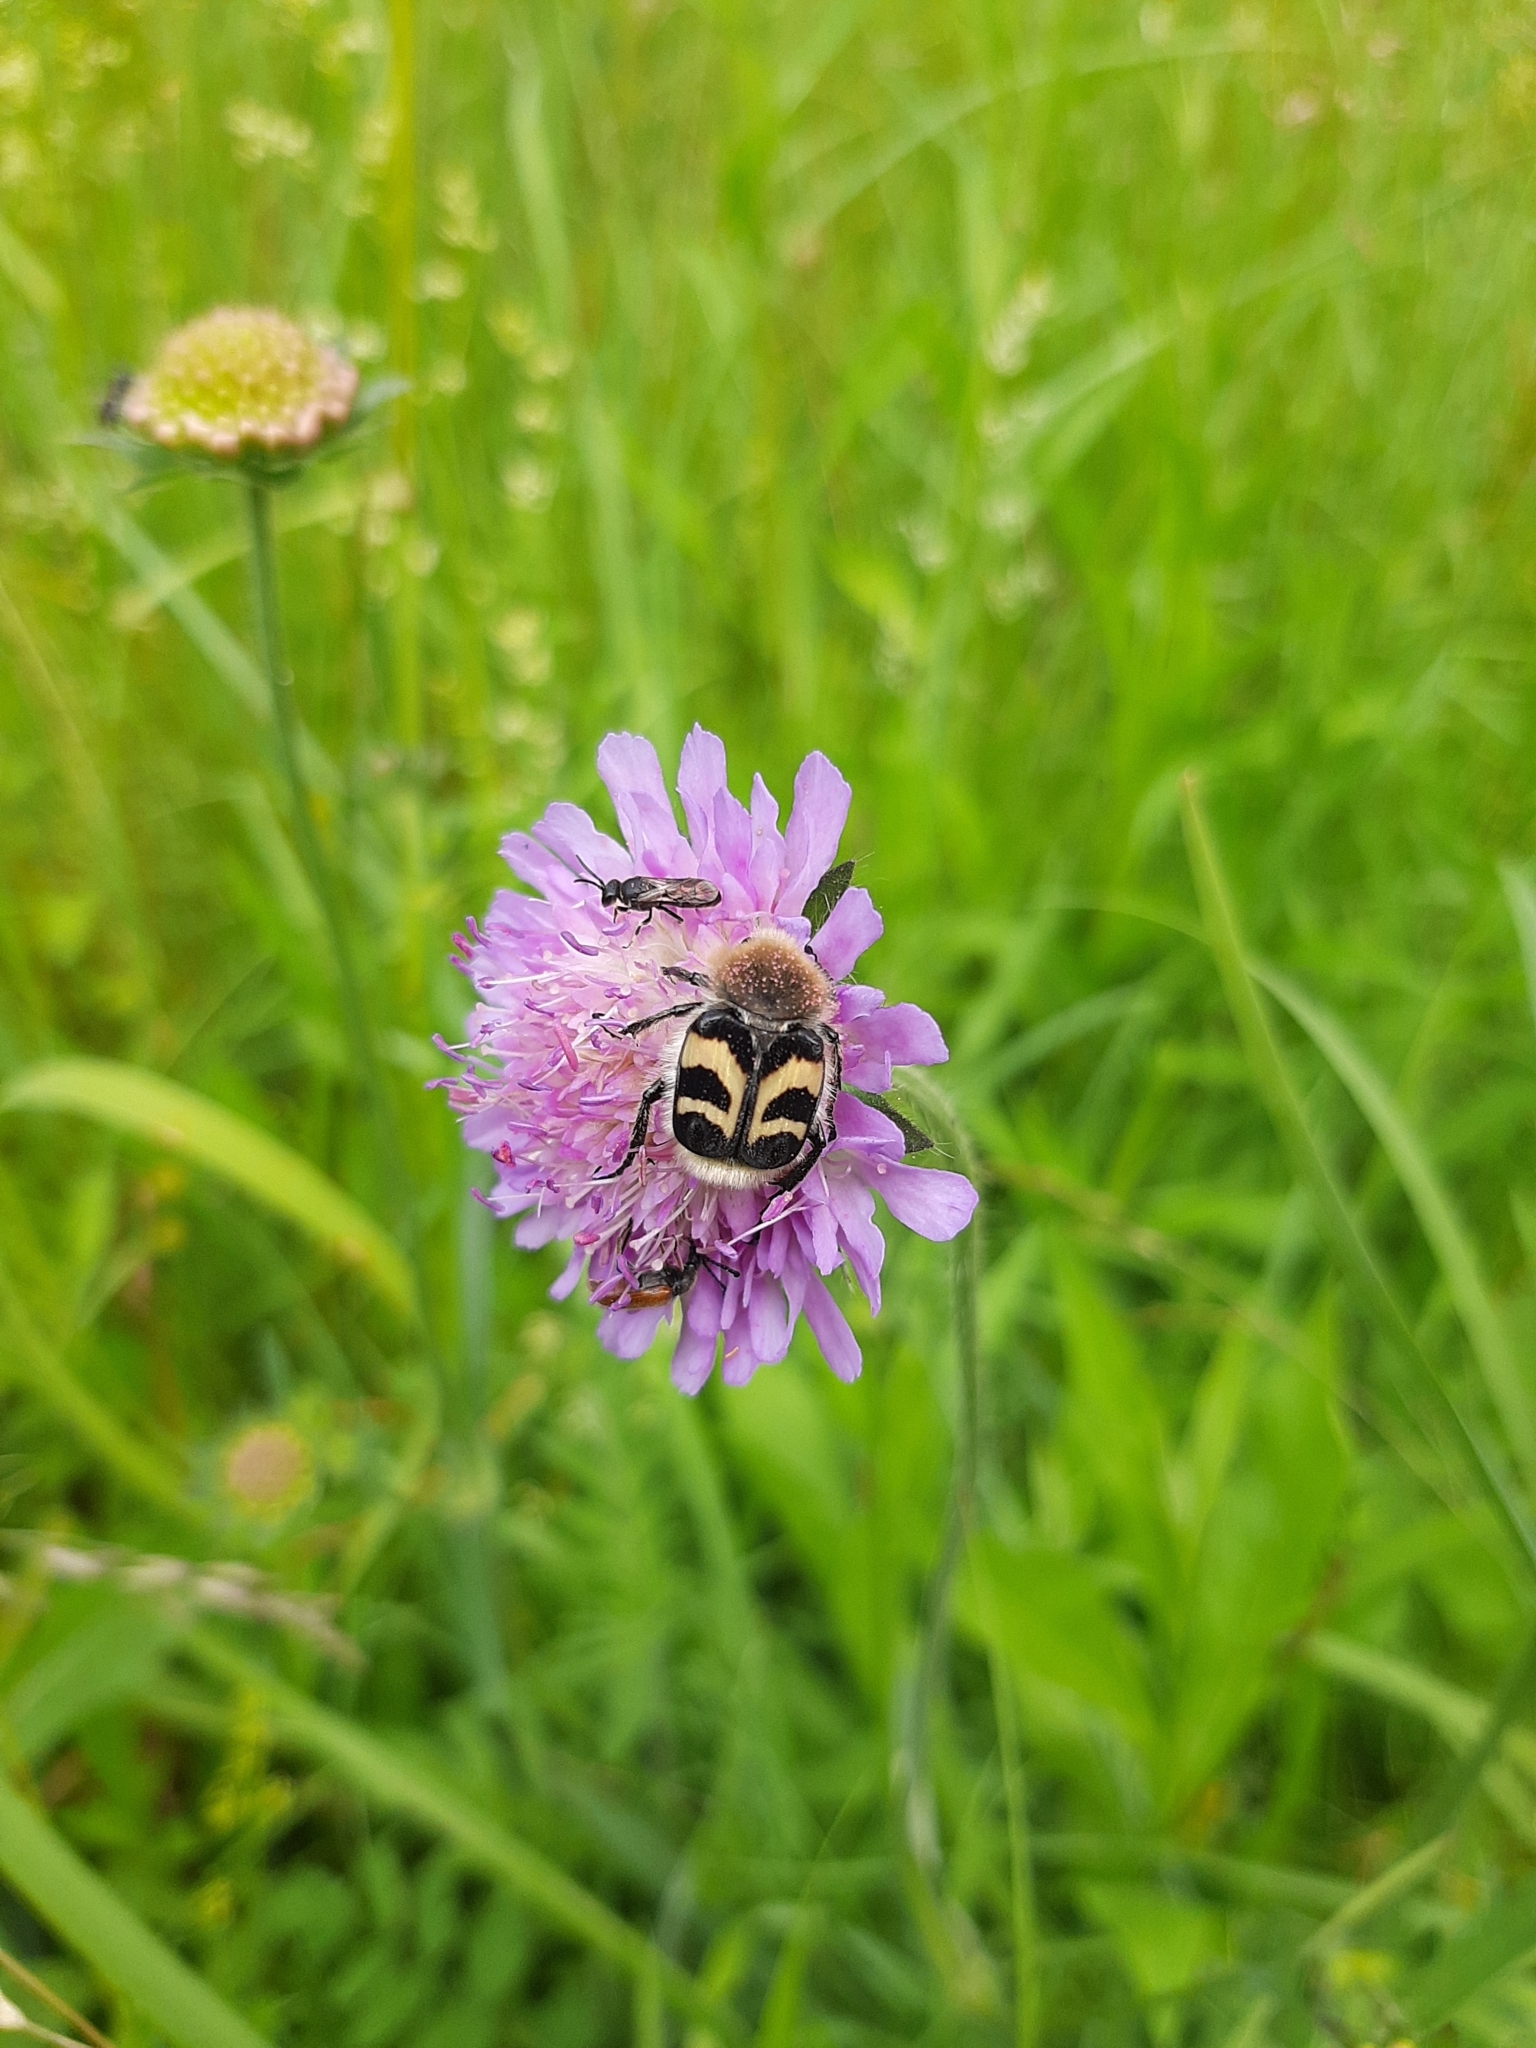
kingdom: Animalia
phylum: Arthropoda
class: Insecta
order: Coleoptera
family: Scarabaeidae
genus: Trichius
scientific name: Trichius fasciatus
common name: Bee beetle
